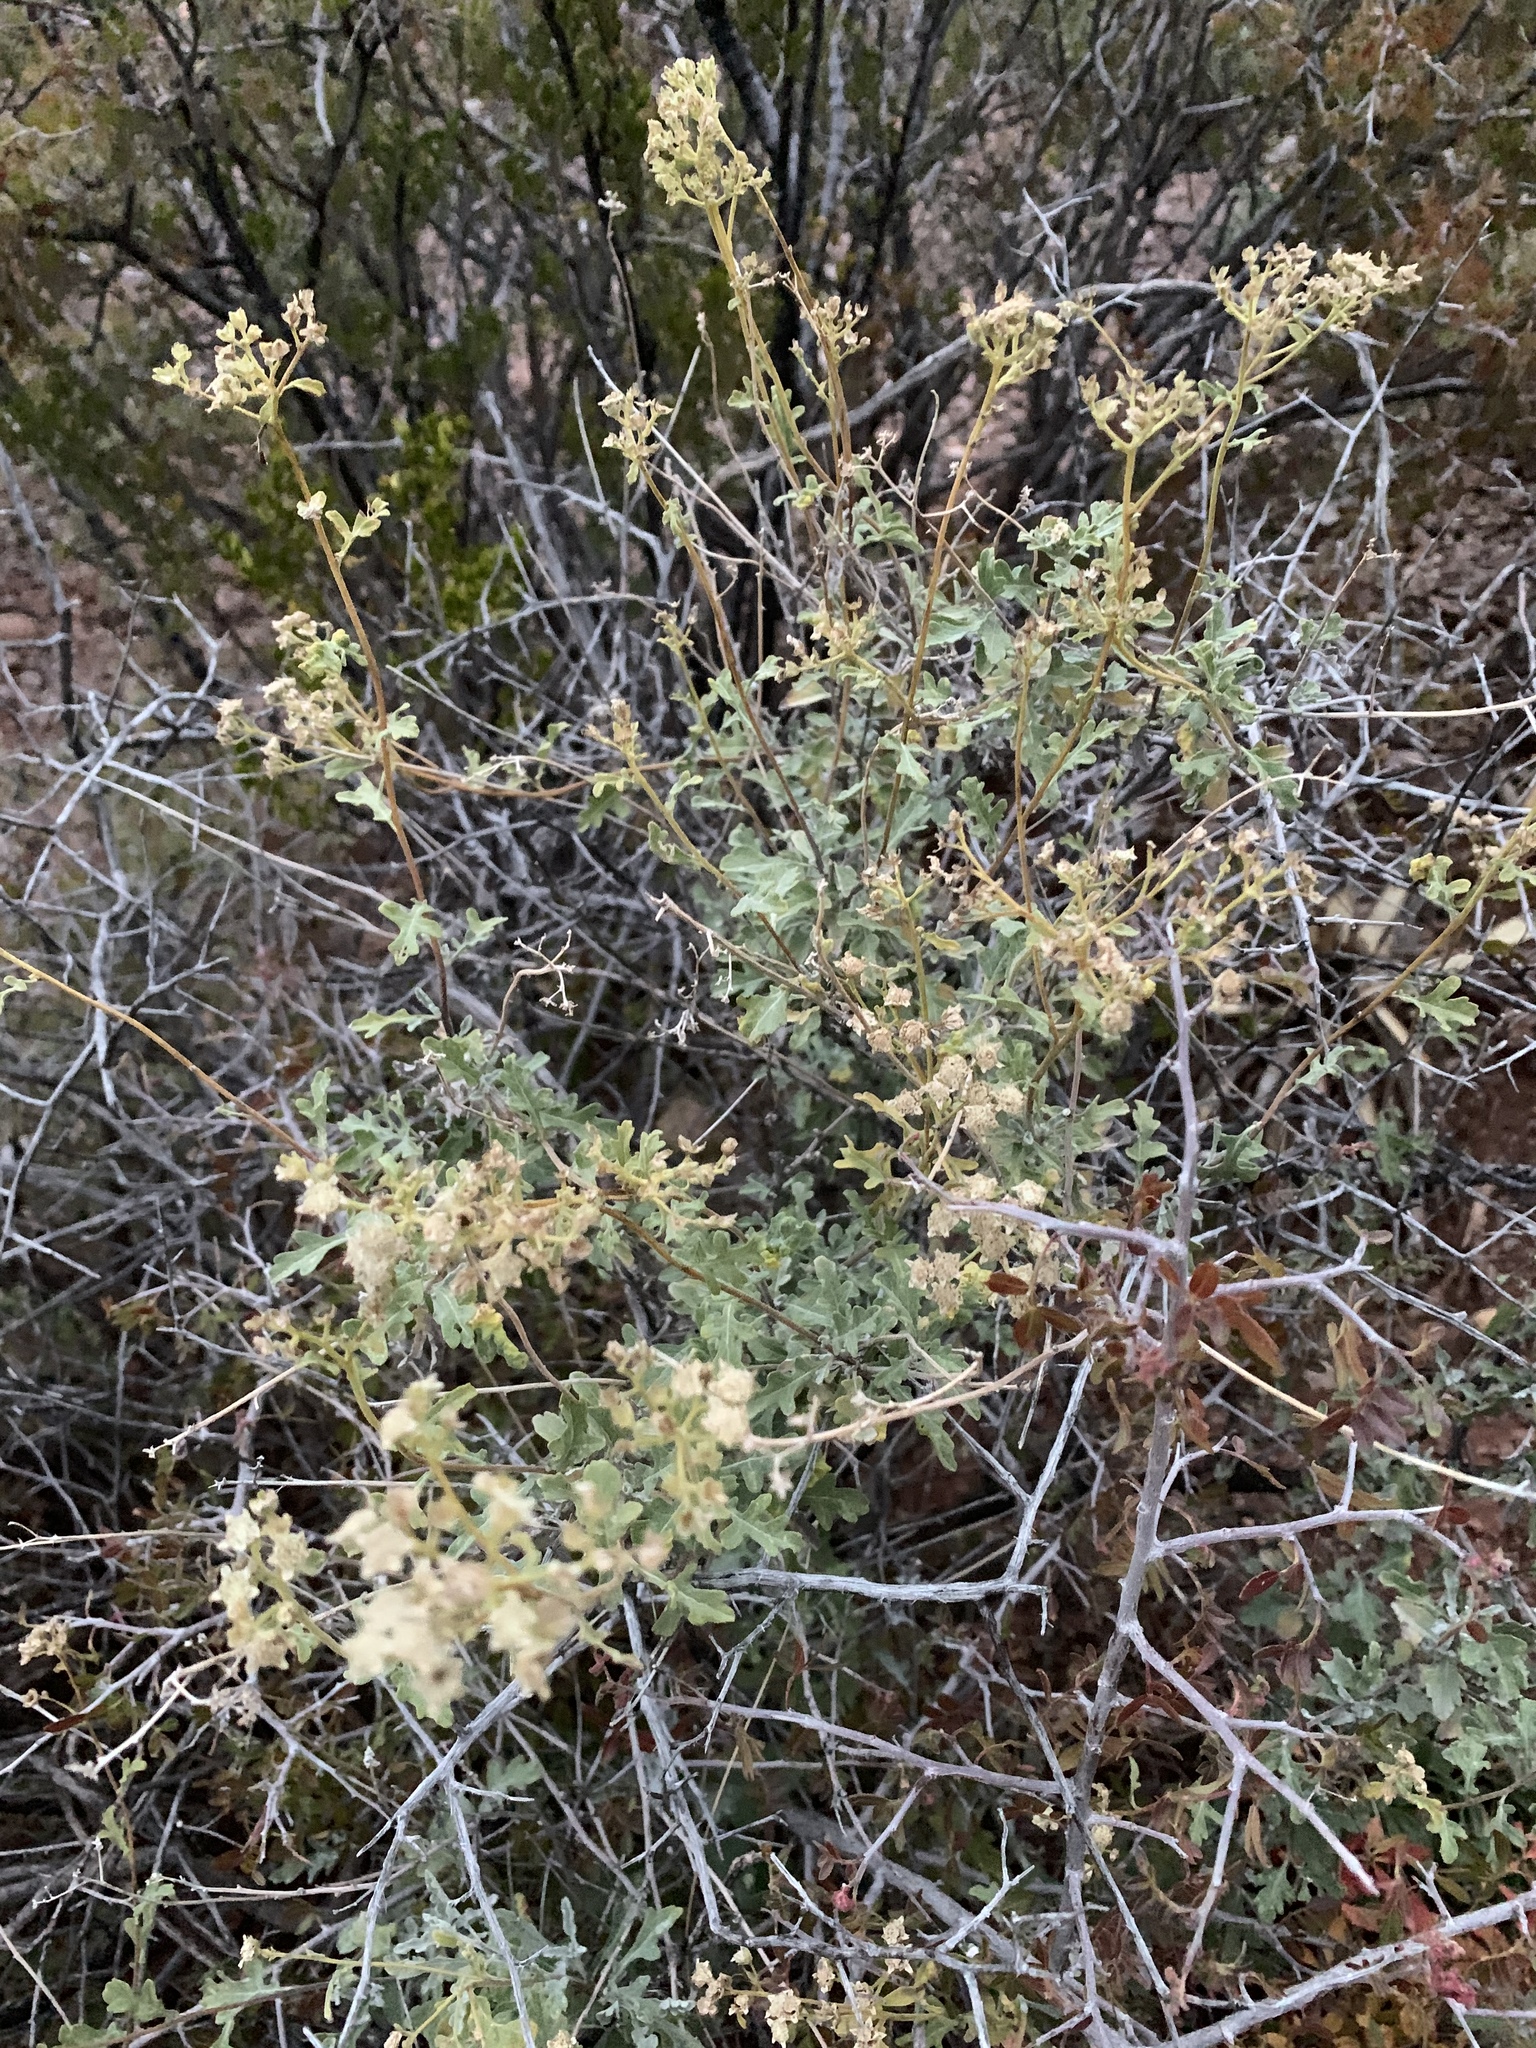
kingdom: Plantae
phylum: Tracheophyta
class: Magnoliopsida
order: Asterales
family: Asteraceae
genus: Parthenium
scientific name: Parthenium incanum
